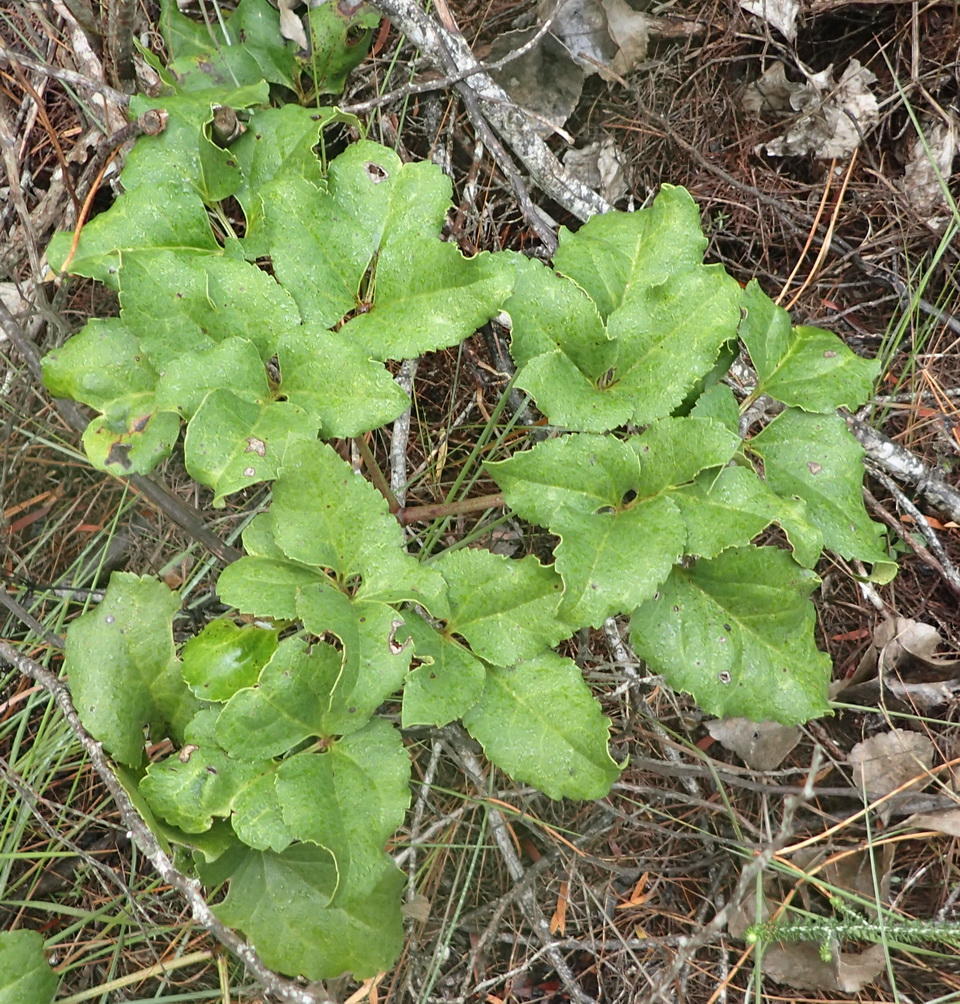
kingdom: Plantae
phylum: Tracheophyta
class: Magnoliopsida
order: Ranunculales
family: Ranunculaceae
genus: Knowltonia
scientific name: Knowltonia vesicatoria
